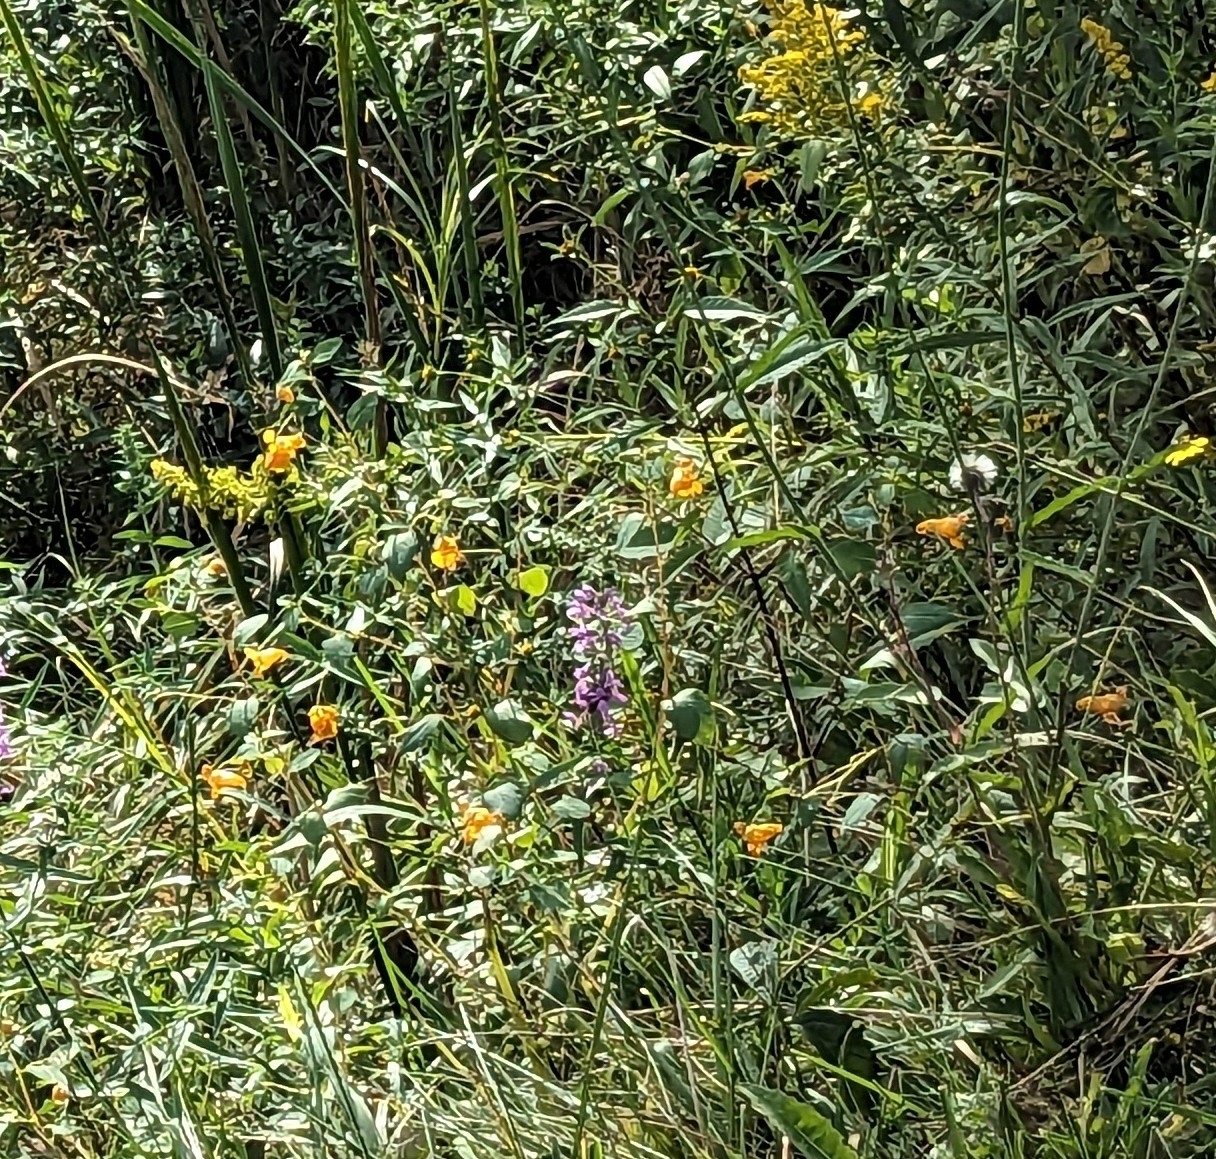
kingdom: Plantae
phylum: Tracheophyta
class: Magnoliopsida
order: Ericales
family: Balsaminaceae
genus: Impatiens
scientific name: Impatiens capensis
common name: Orange balsam
